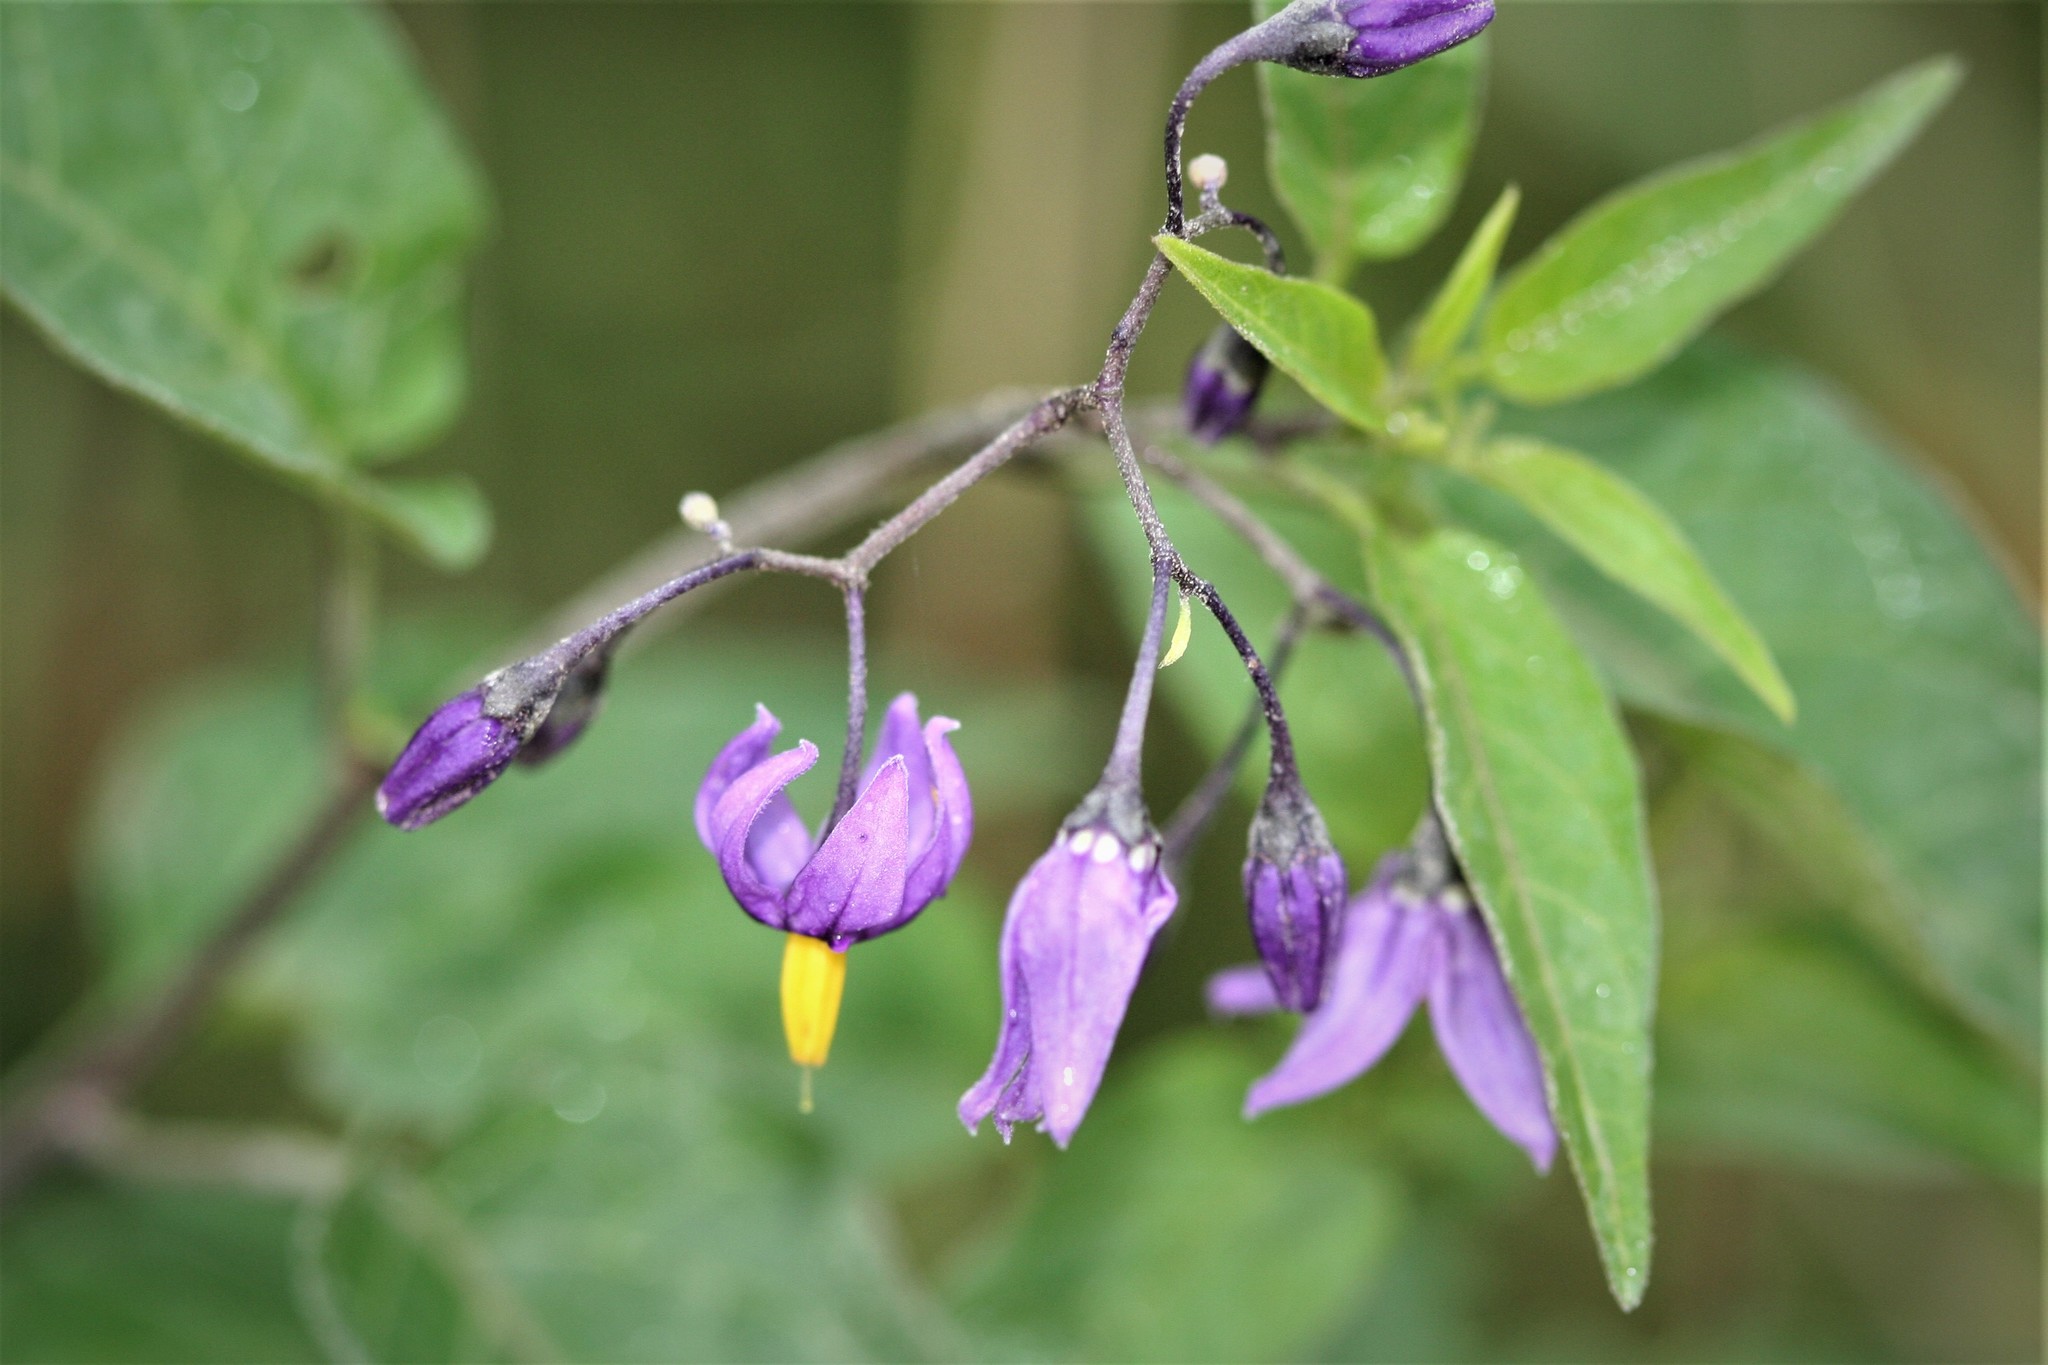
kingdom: Plantae
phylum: Tracheophyta
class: Magnoliopsida
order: Solanales
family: Solanaceae
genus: Solanum
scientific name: Solanum dulcamara
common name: Climbing nightshade
